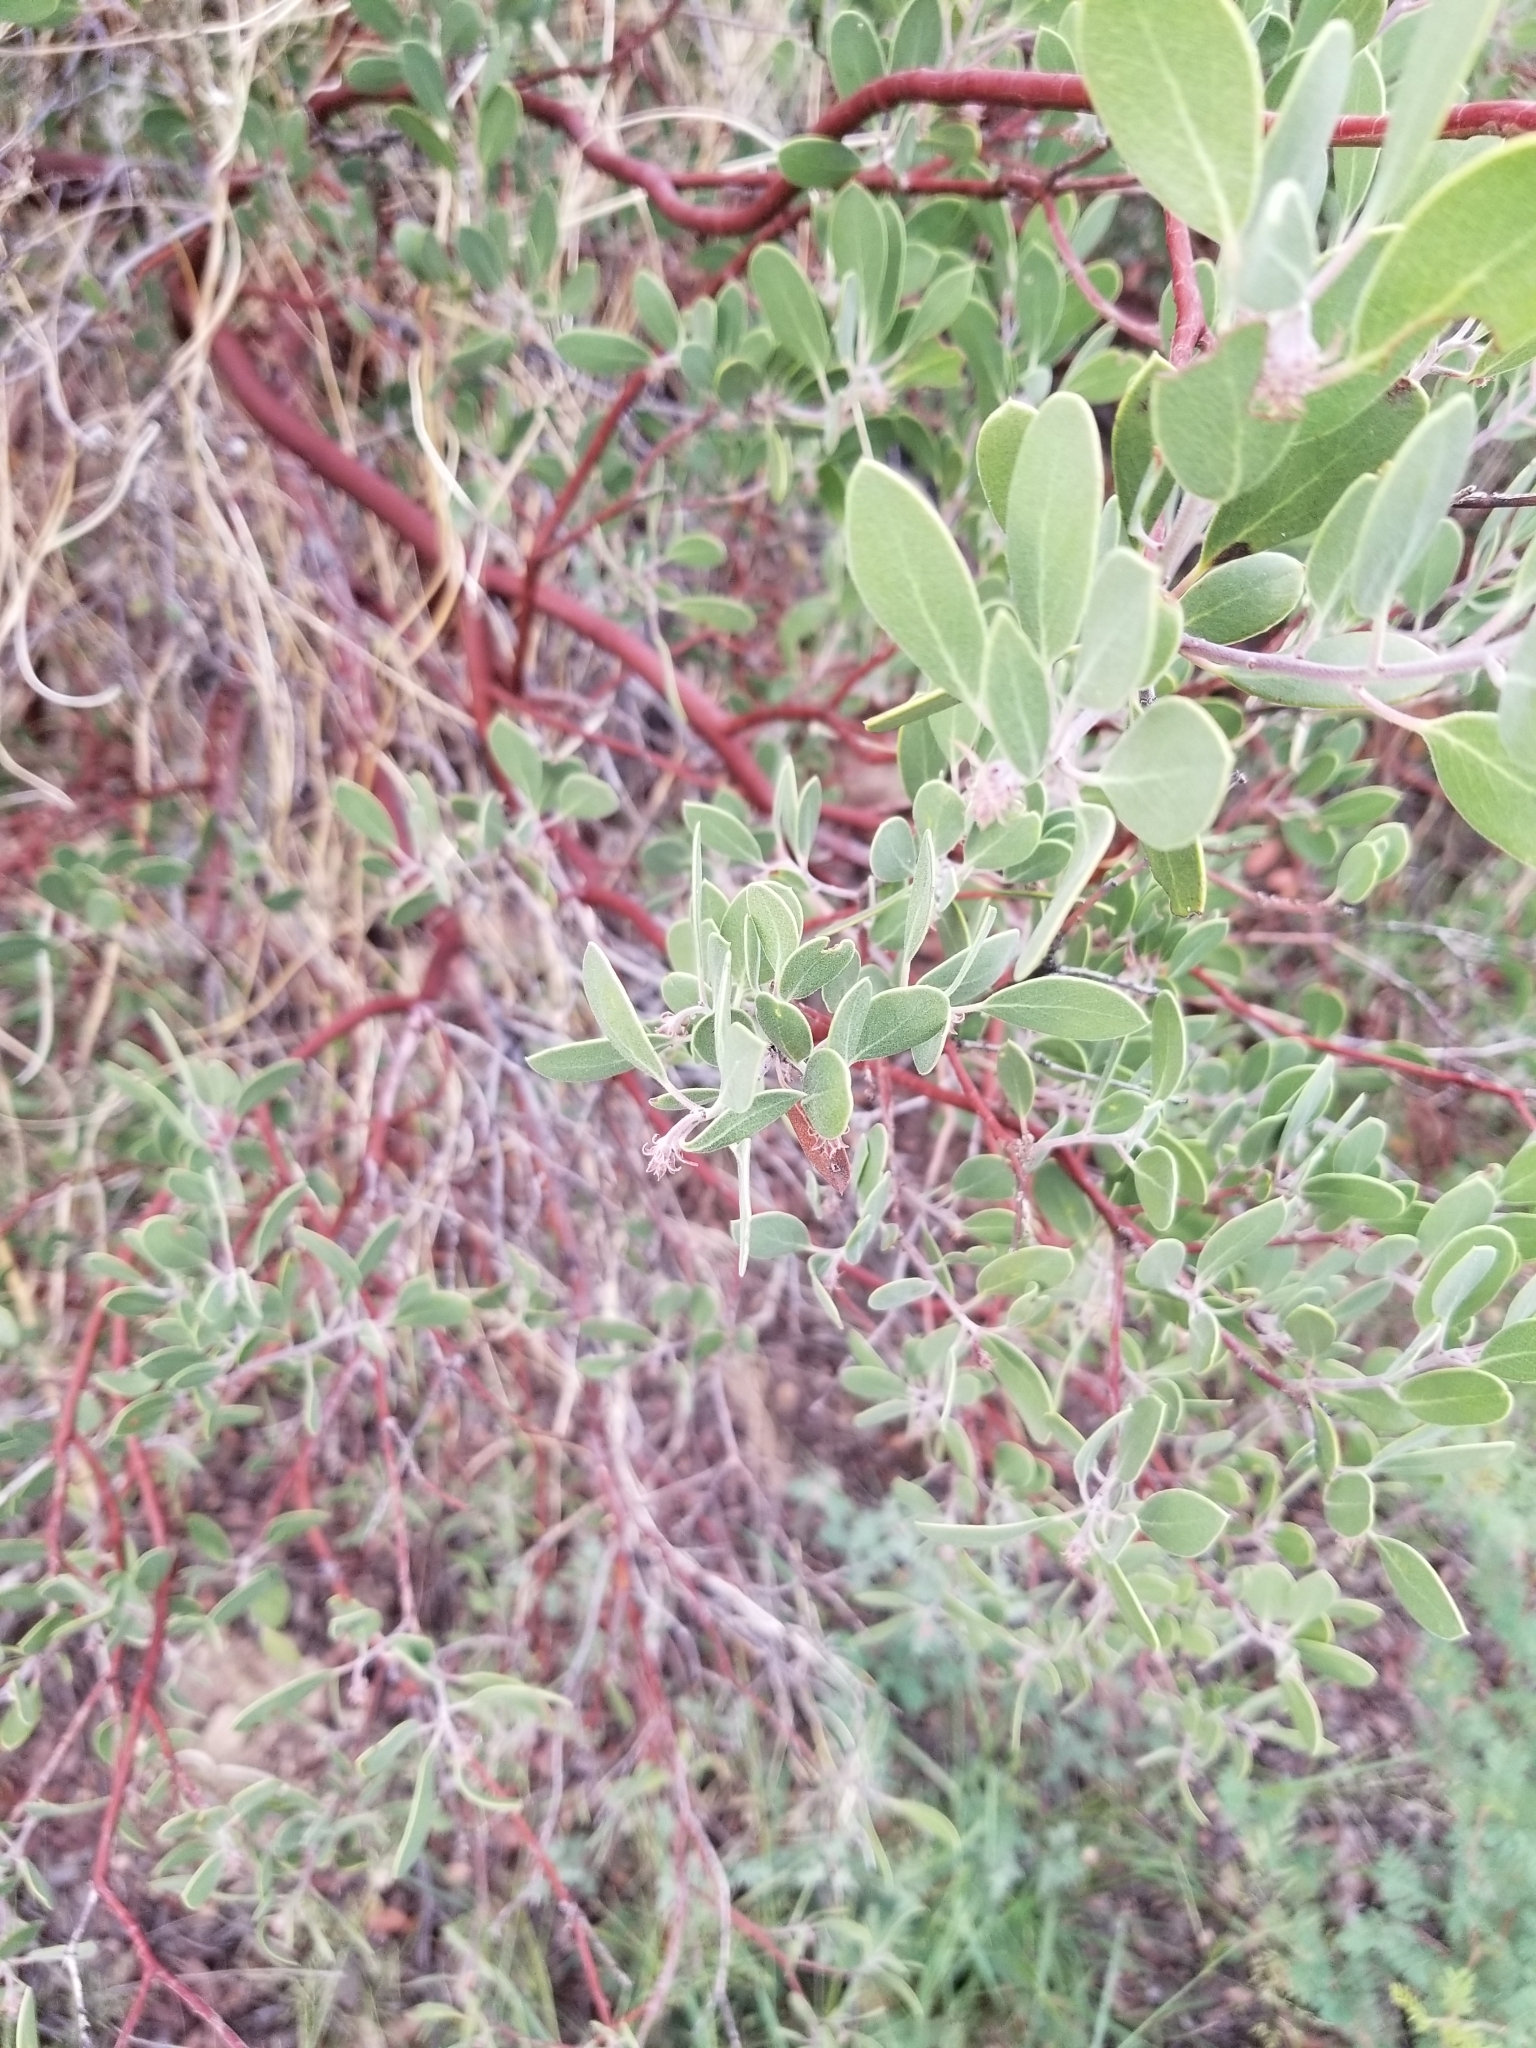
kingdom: Plantae
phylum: Tracheophyta
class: Magnoliopsida
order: Ericales
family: Ericaceae
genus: Arctostaphylos
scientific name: Arctostaphylos pungens
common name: Mexican manzanita
